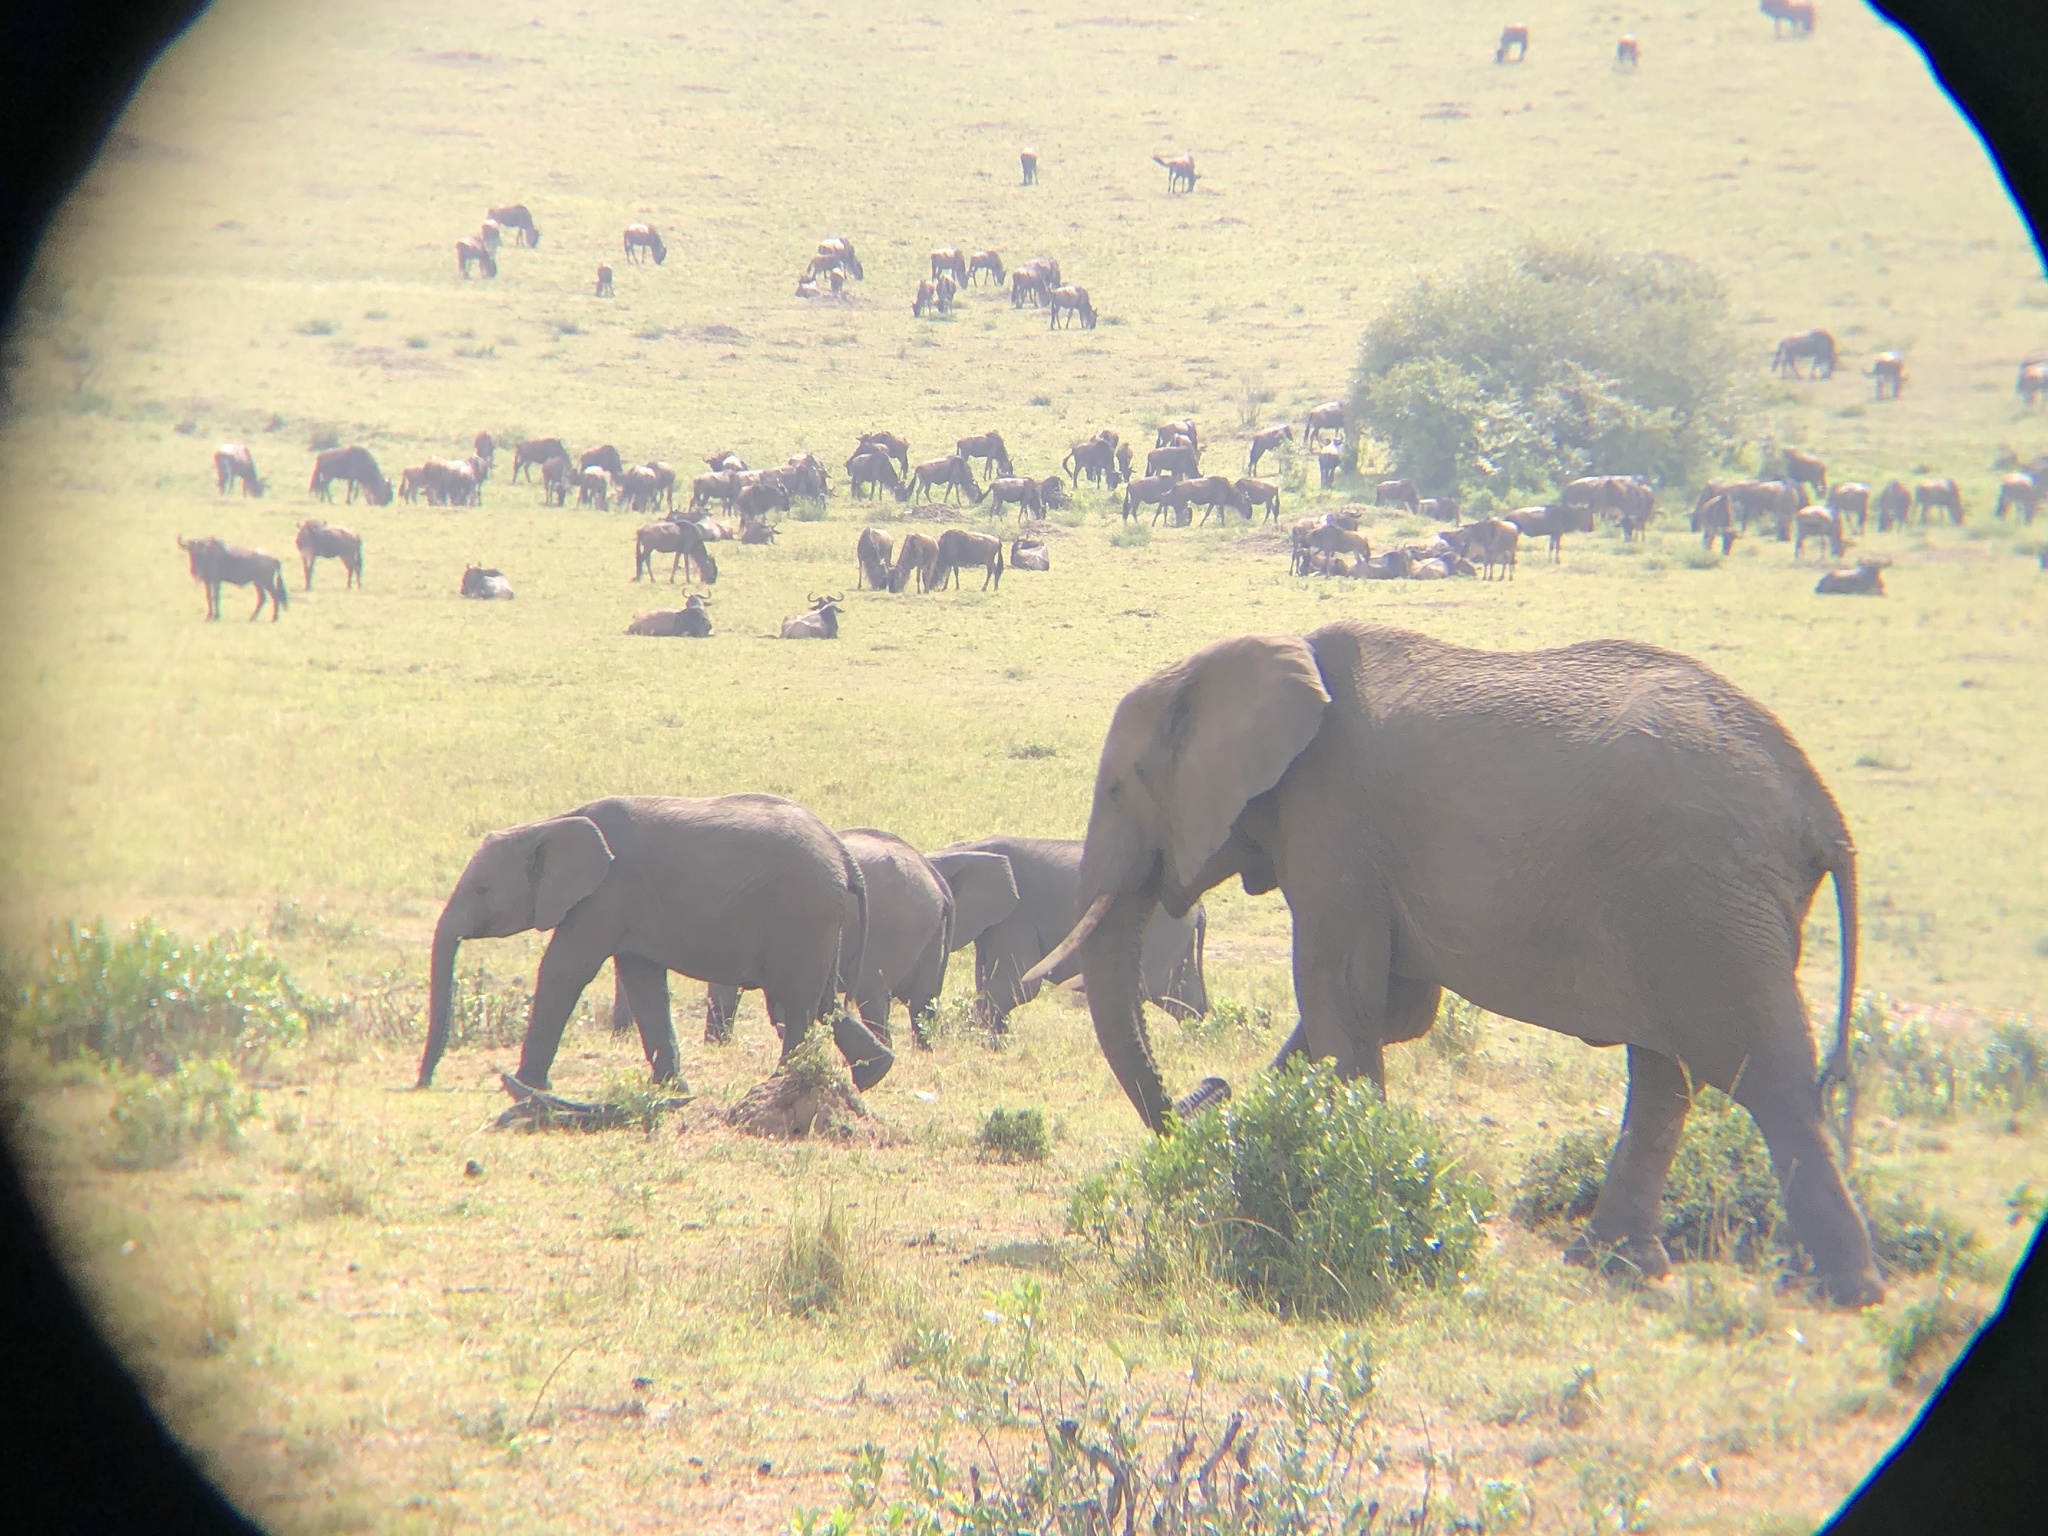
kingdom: Animalia
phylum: Chordata
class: Mammalia
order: Proboscidea
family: Elephantidae
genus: Loxodonta
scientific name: Loxodonta africana
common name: African elephant
